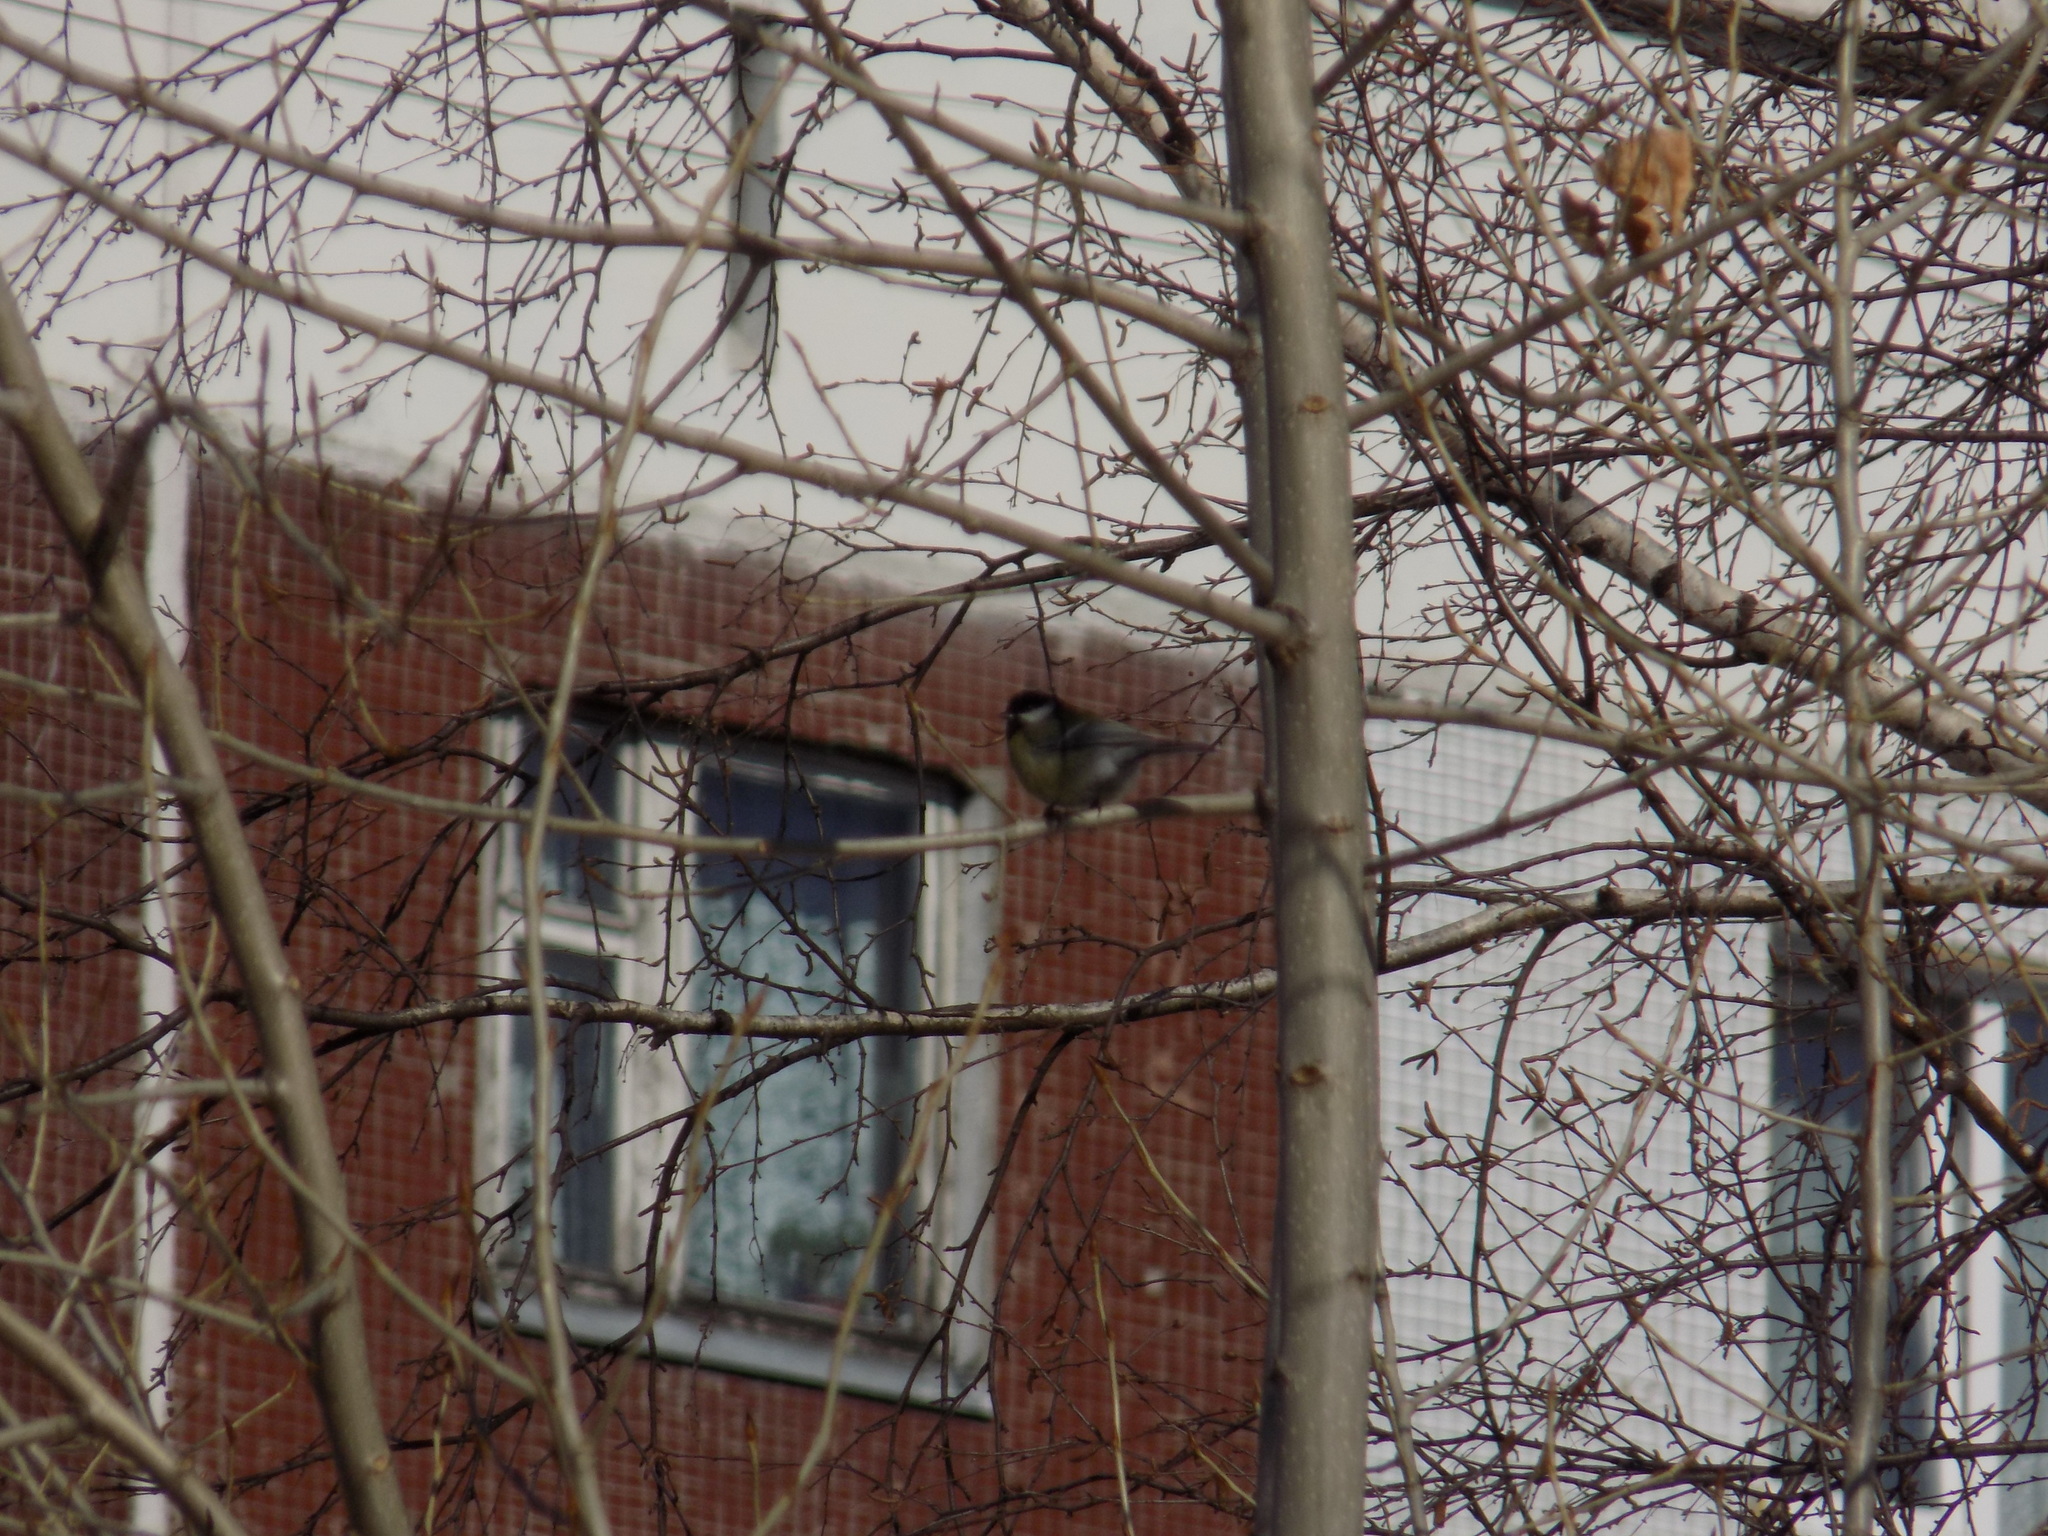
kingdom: Animalia
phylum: Chordata
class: Aves
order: Passeriformes
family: Paridae
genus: Parus
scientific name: Parus major
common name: Great tit
